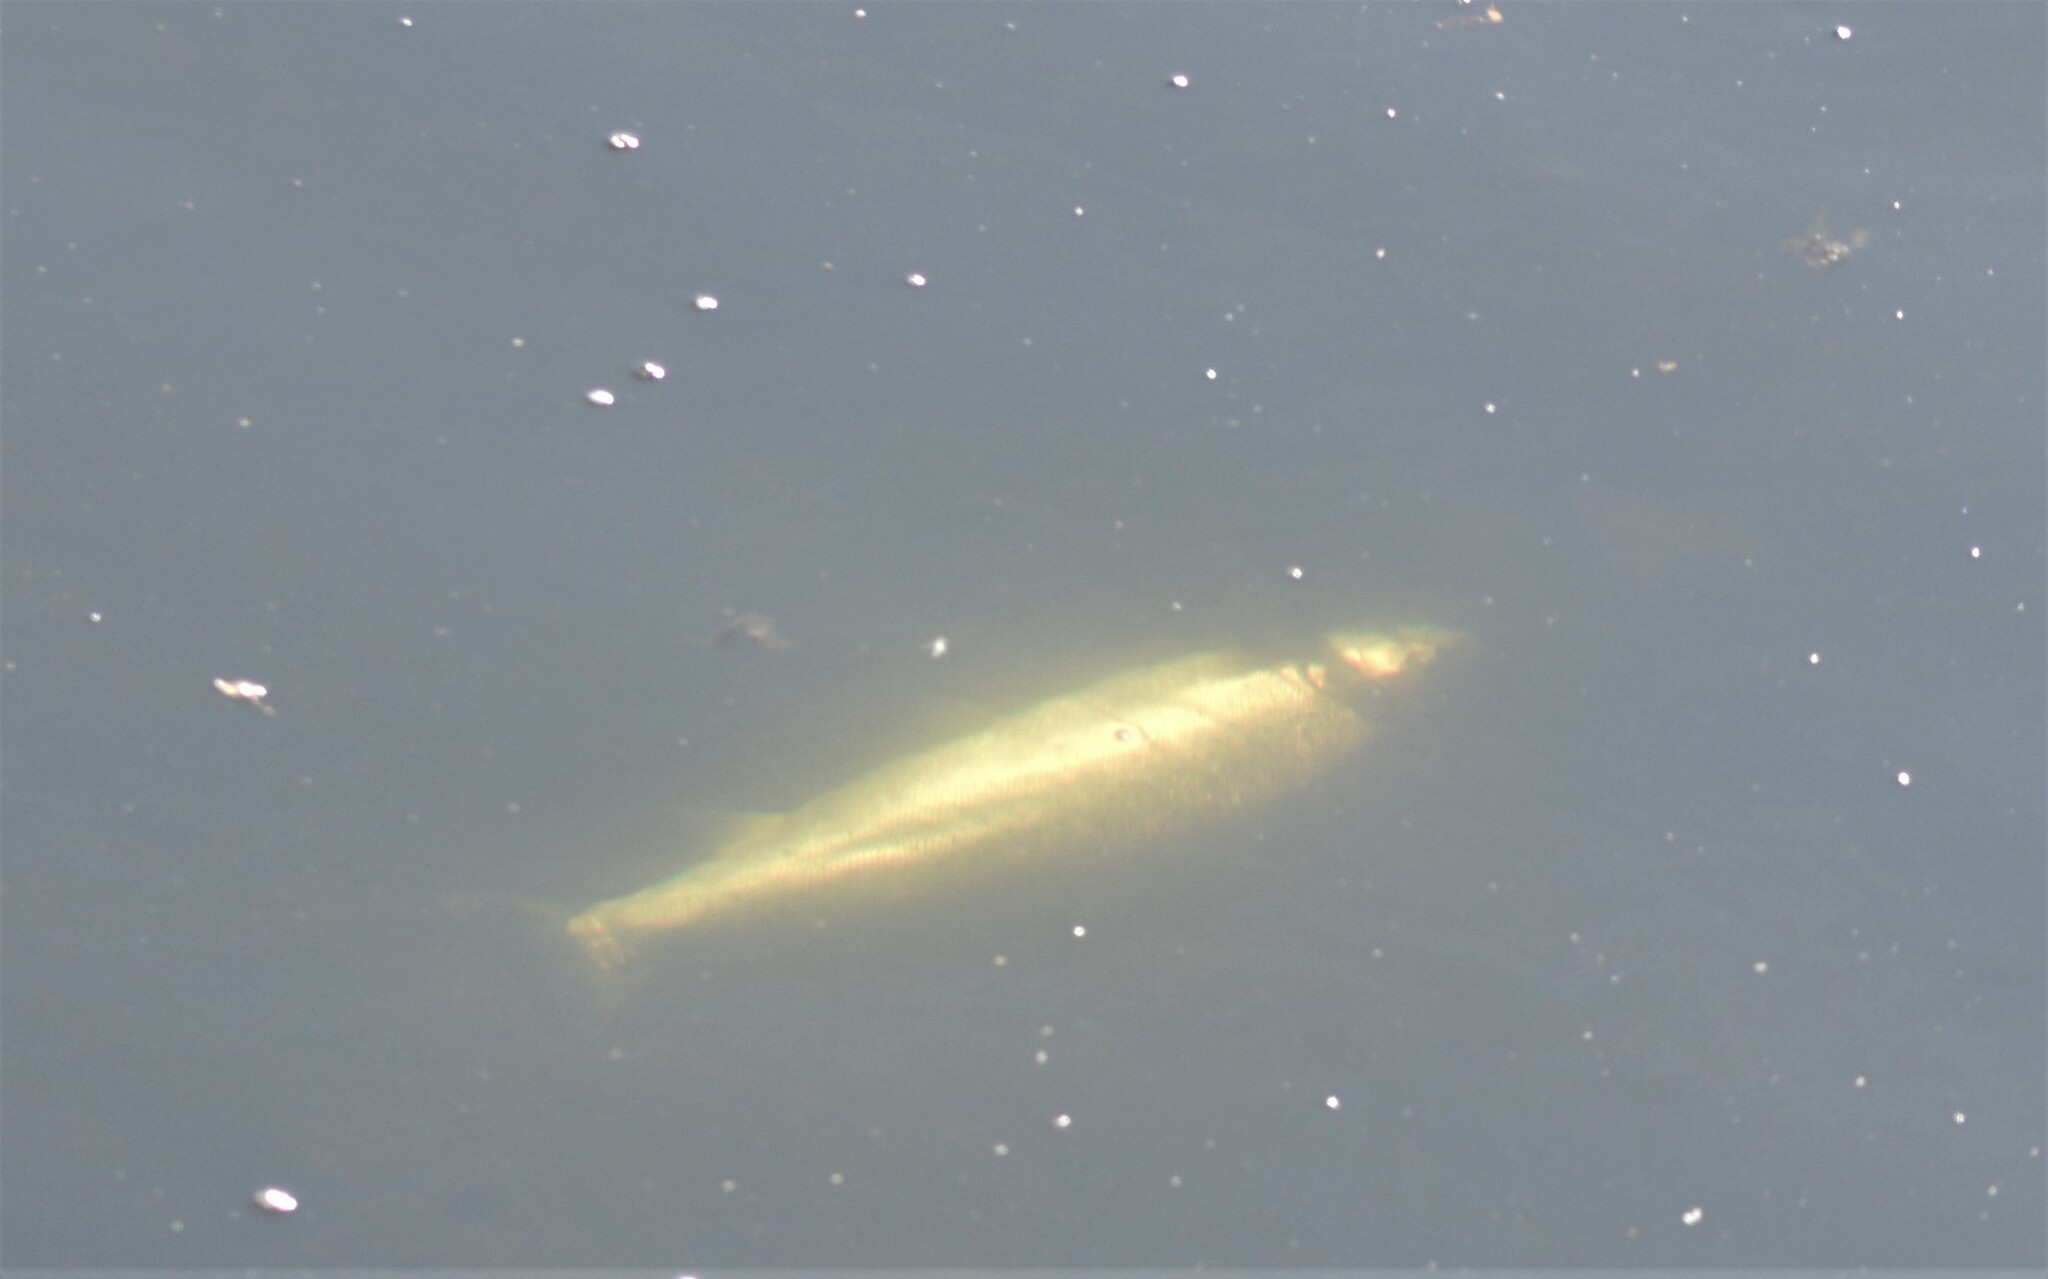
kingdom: Animalia
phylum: Chordata
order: Salmoniformes
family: Salmonidae
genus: Salmo
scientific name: Salmo salar
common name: Atlantic salmon
